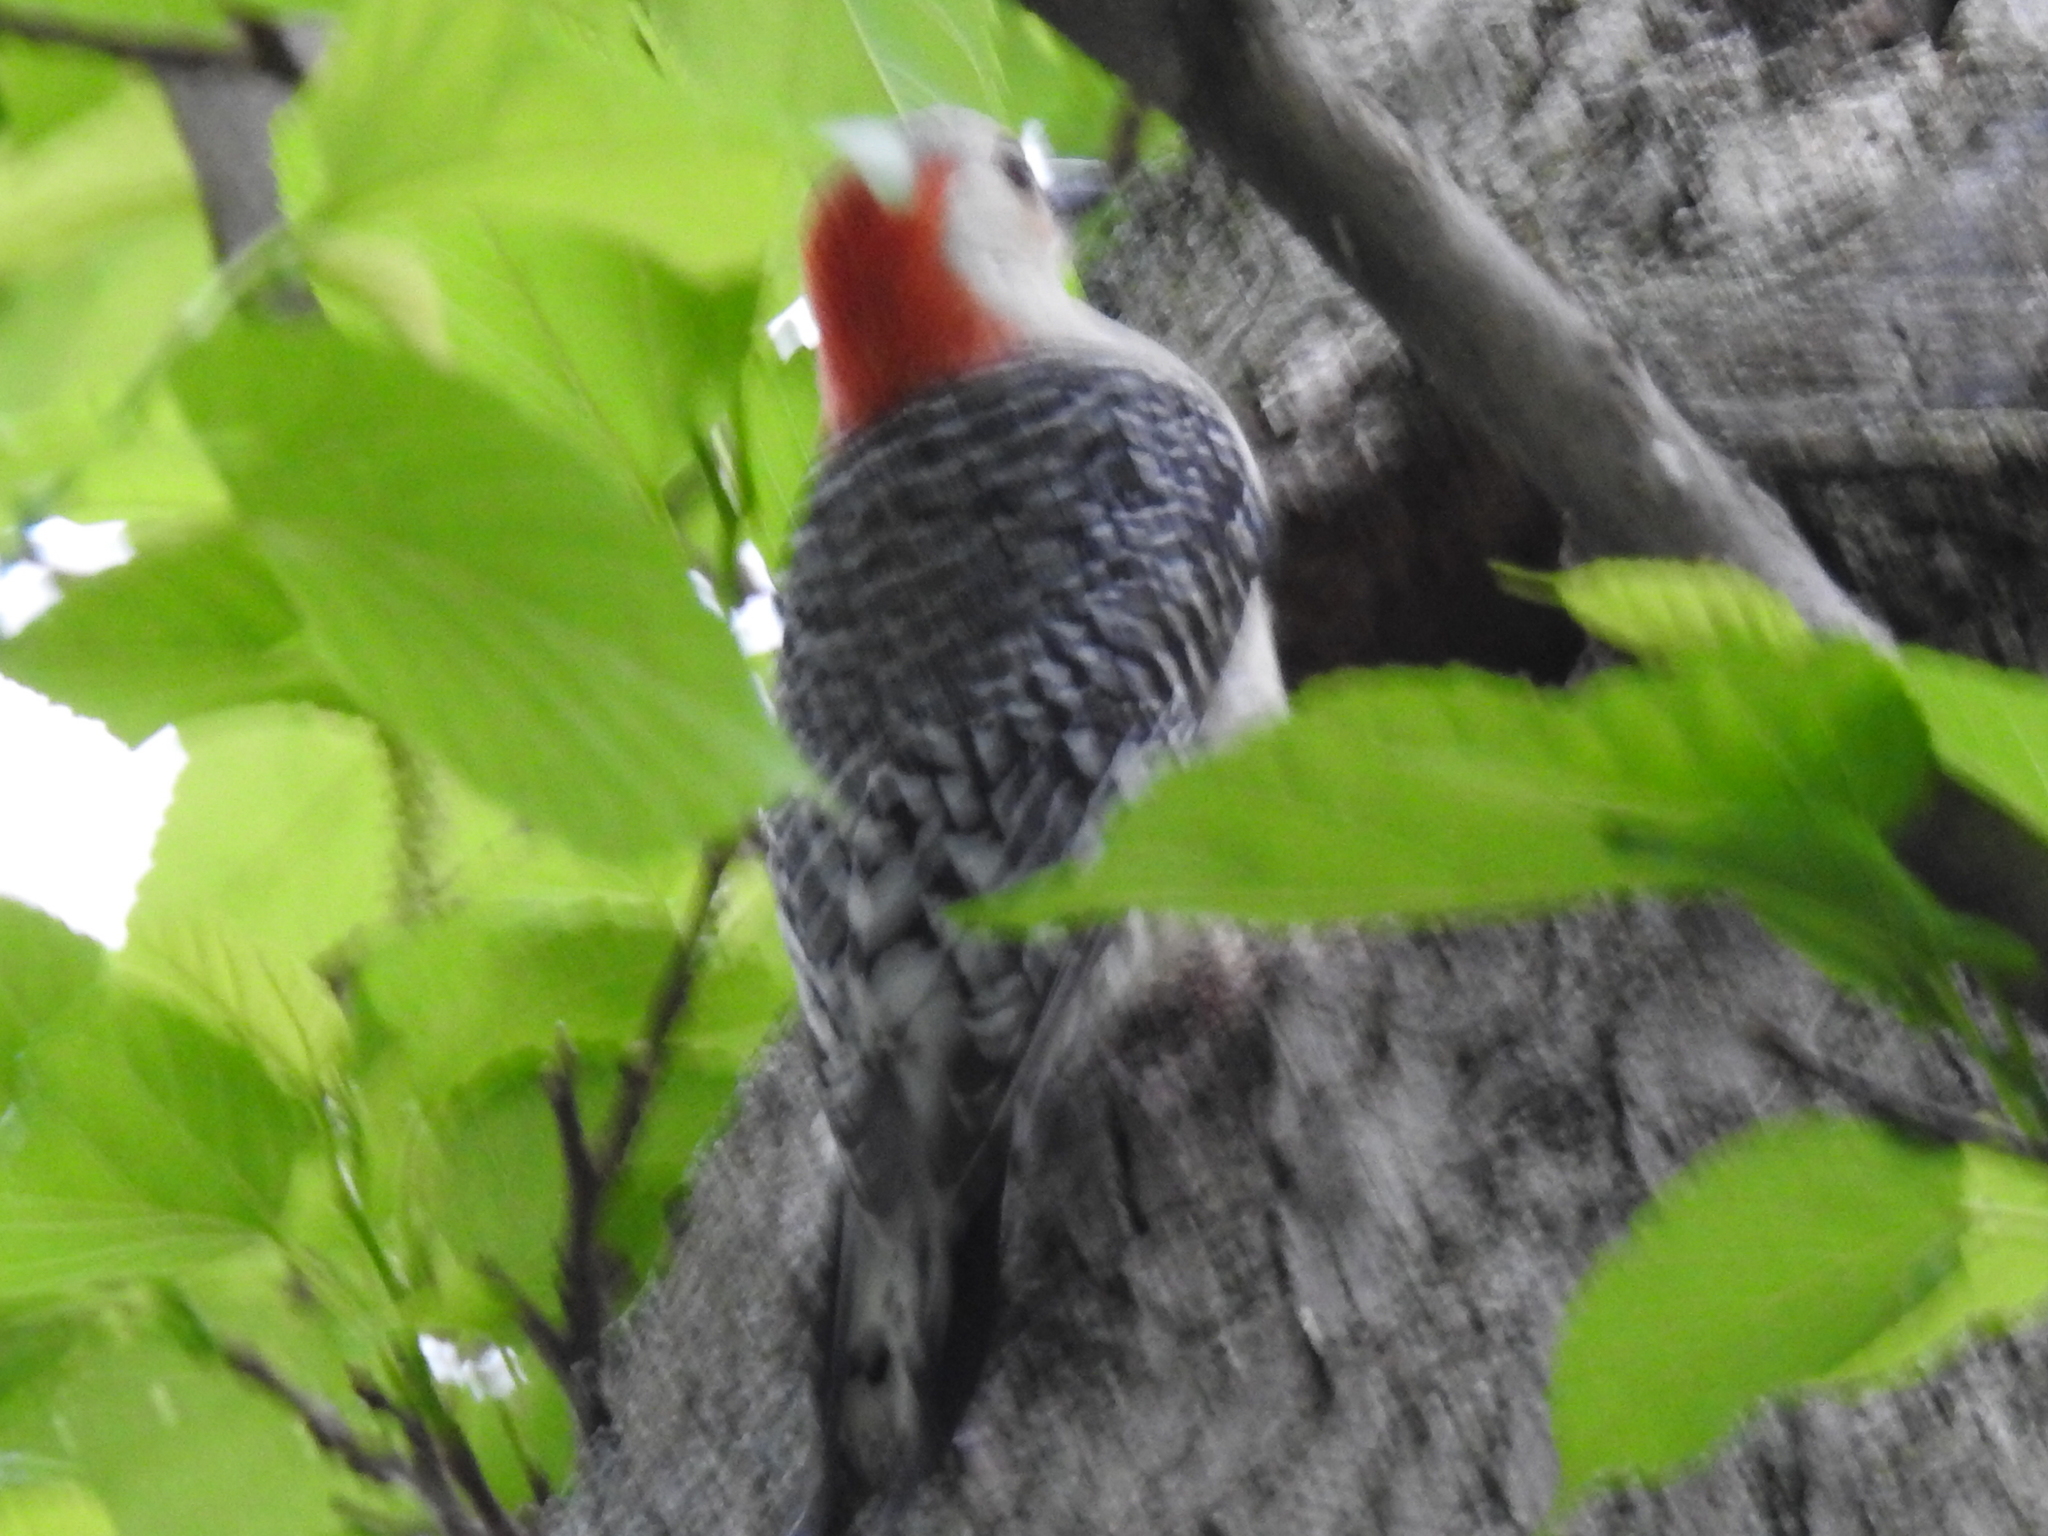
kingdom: Animalia
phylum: Chordata
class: Aves
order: Piciformes
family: Picidae
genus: Melanerpes
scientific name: Melanerpes carolinus
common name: Red-bellied woodpecker
